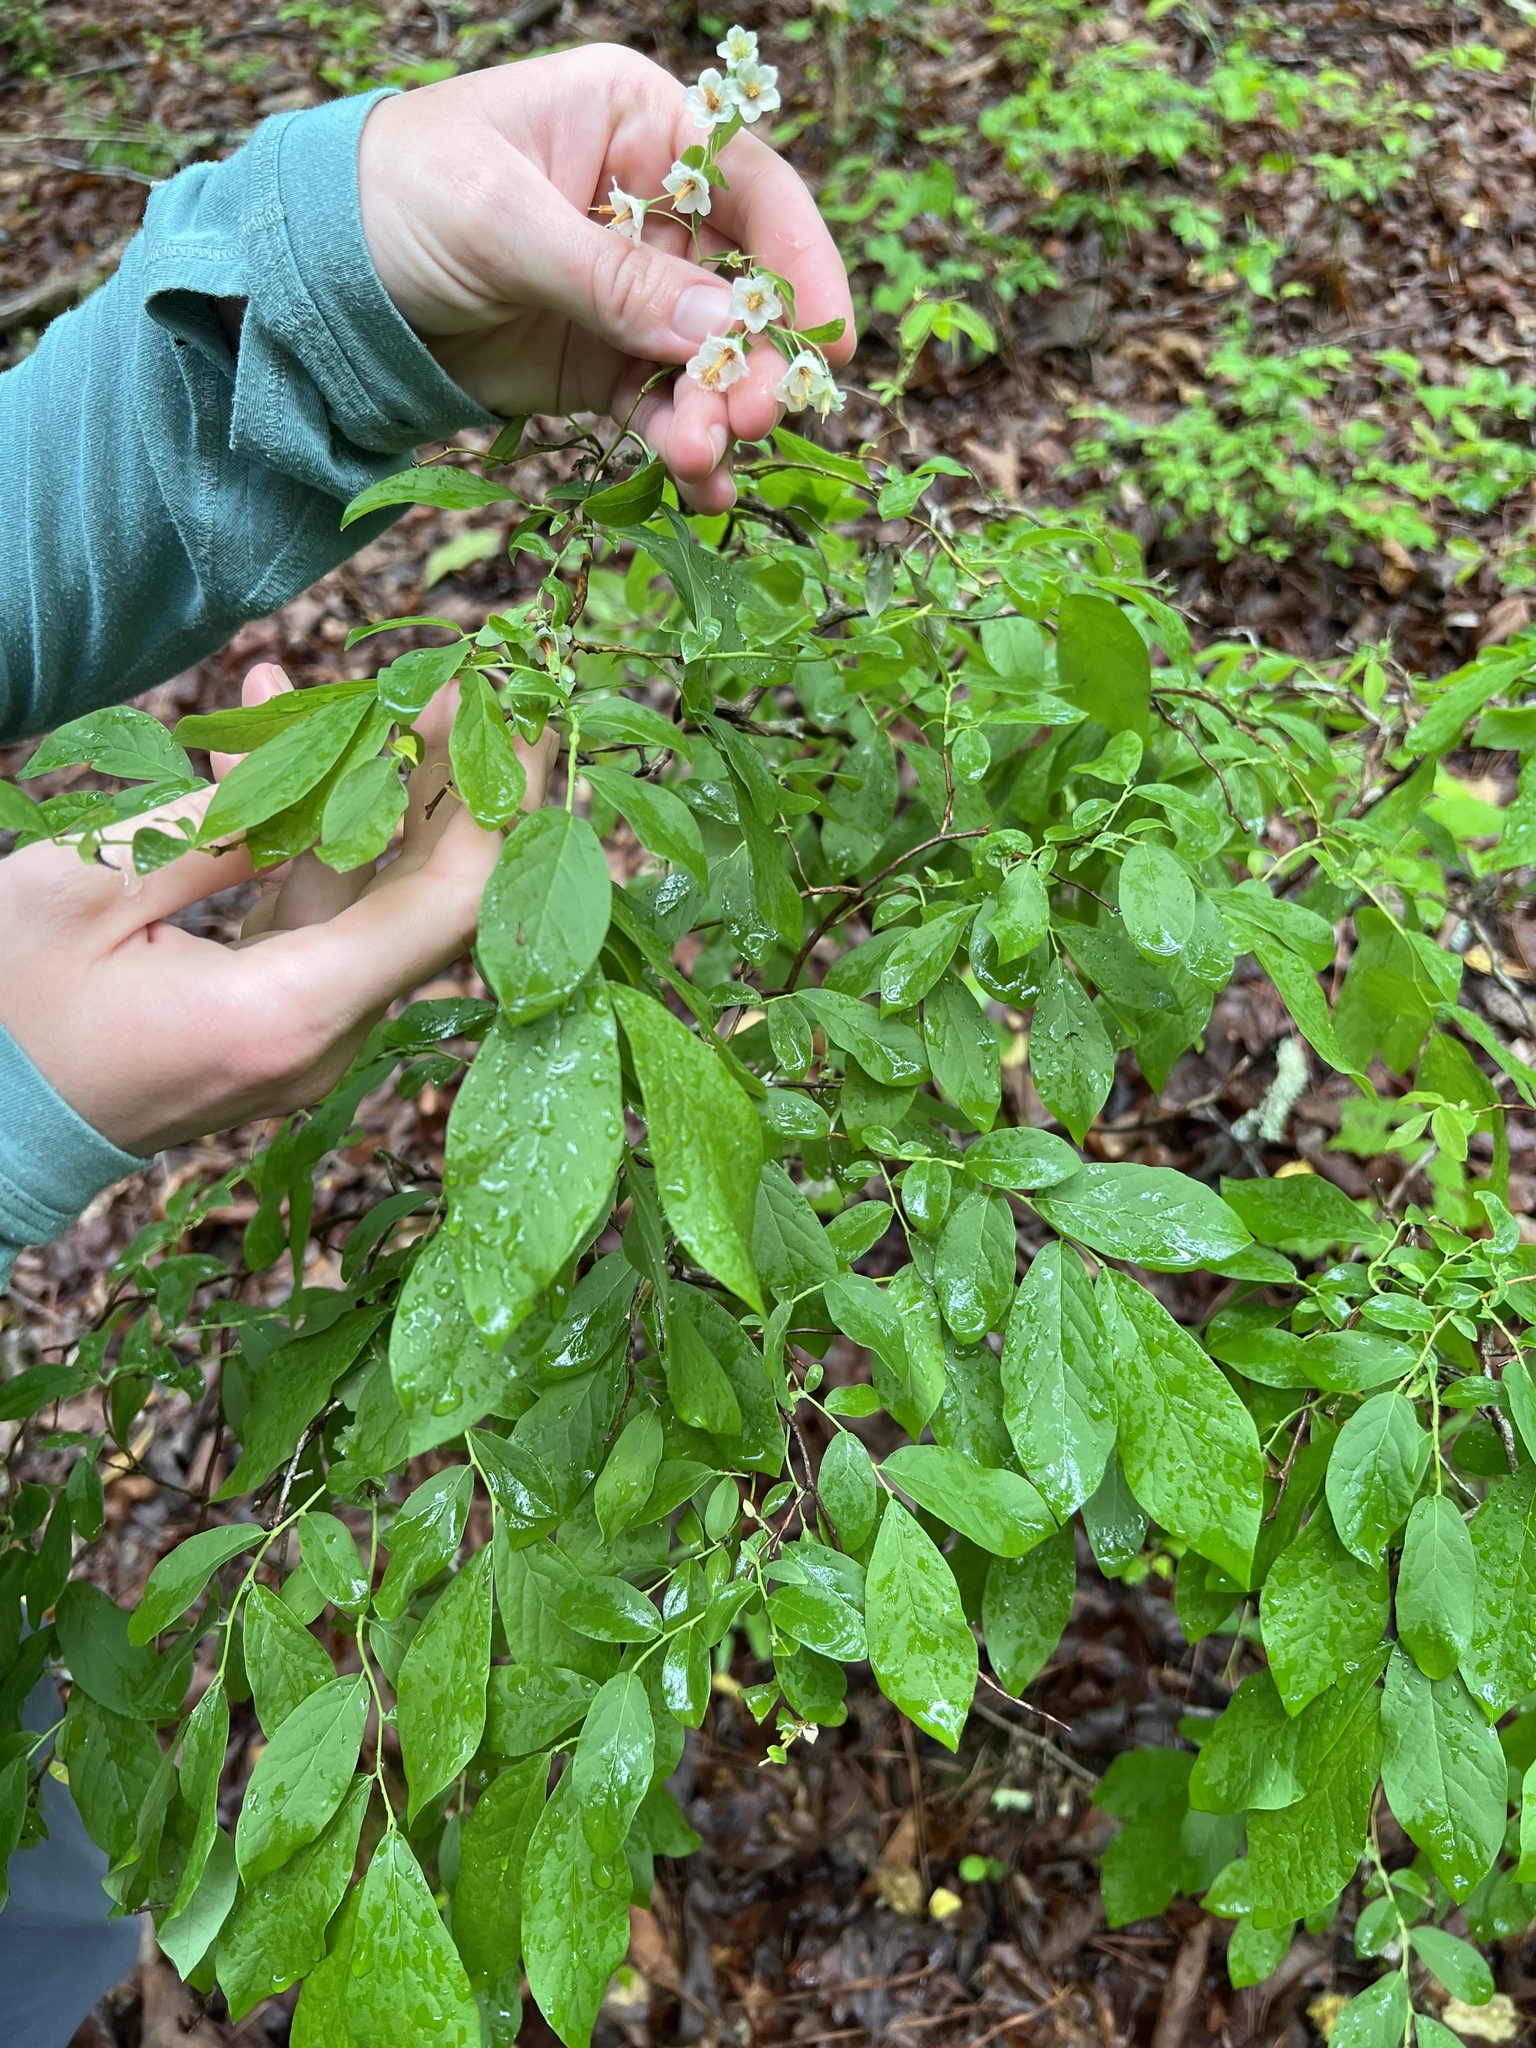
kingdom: Plantae
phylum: Tracheophyta
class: Magnoliopsida
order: Ericales
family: Ericaceae
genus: Vaccinium
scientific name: Vaccinium stamineum
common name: Deerberry
